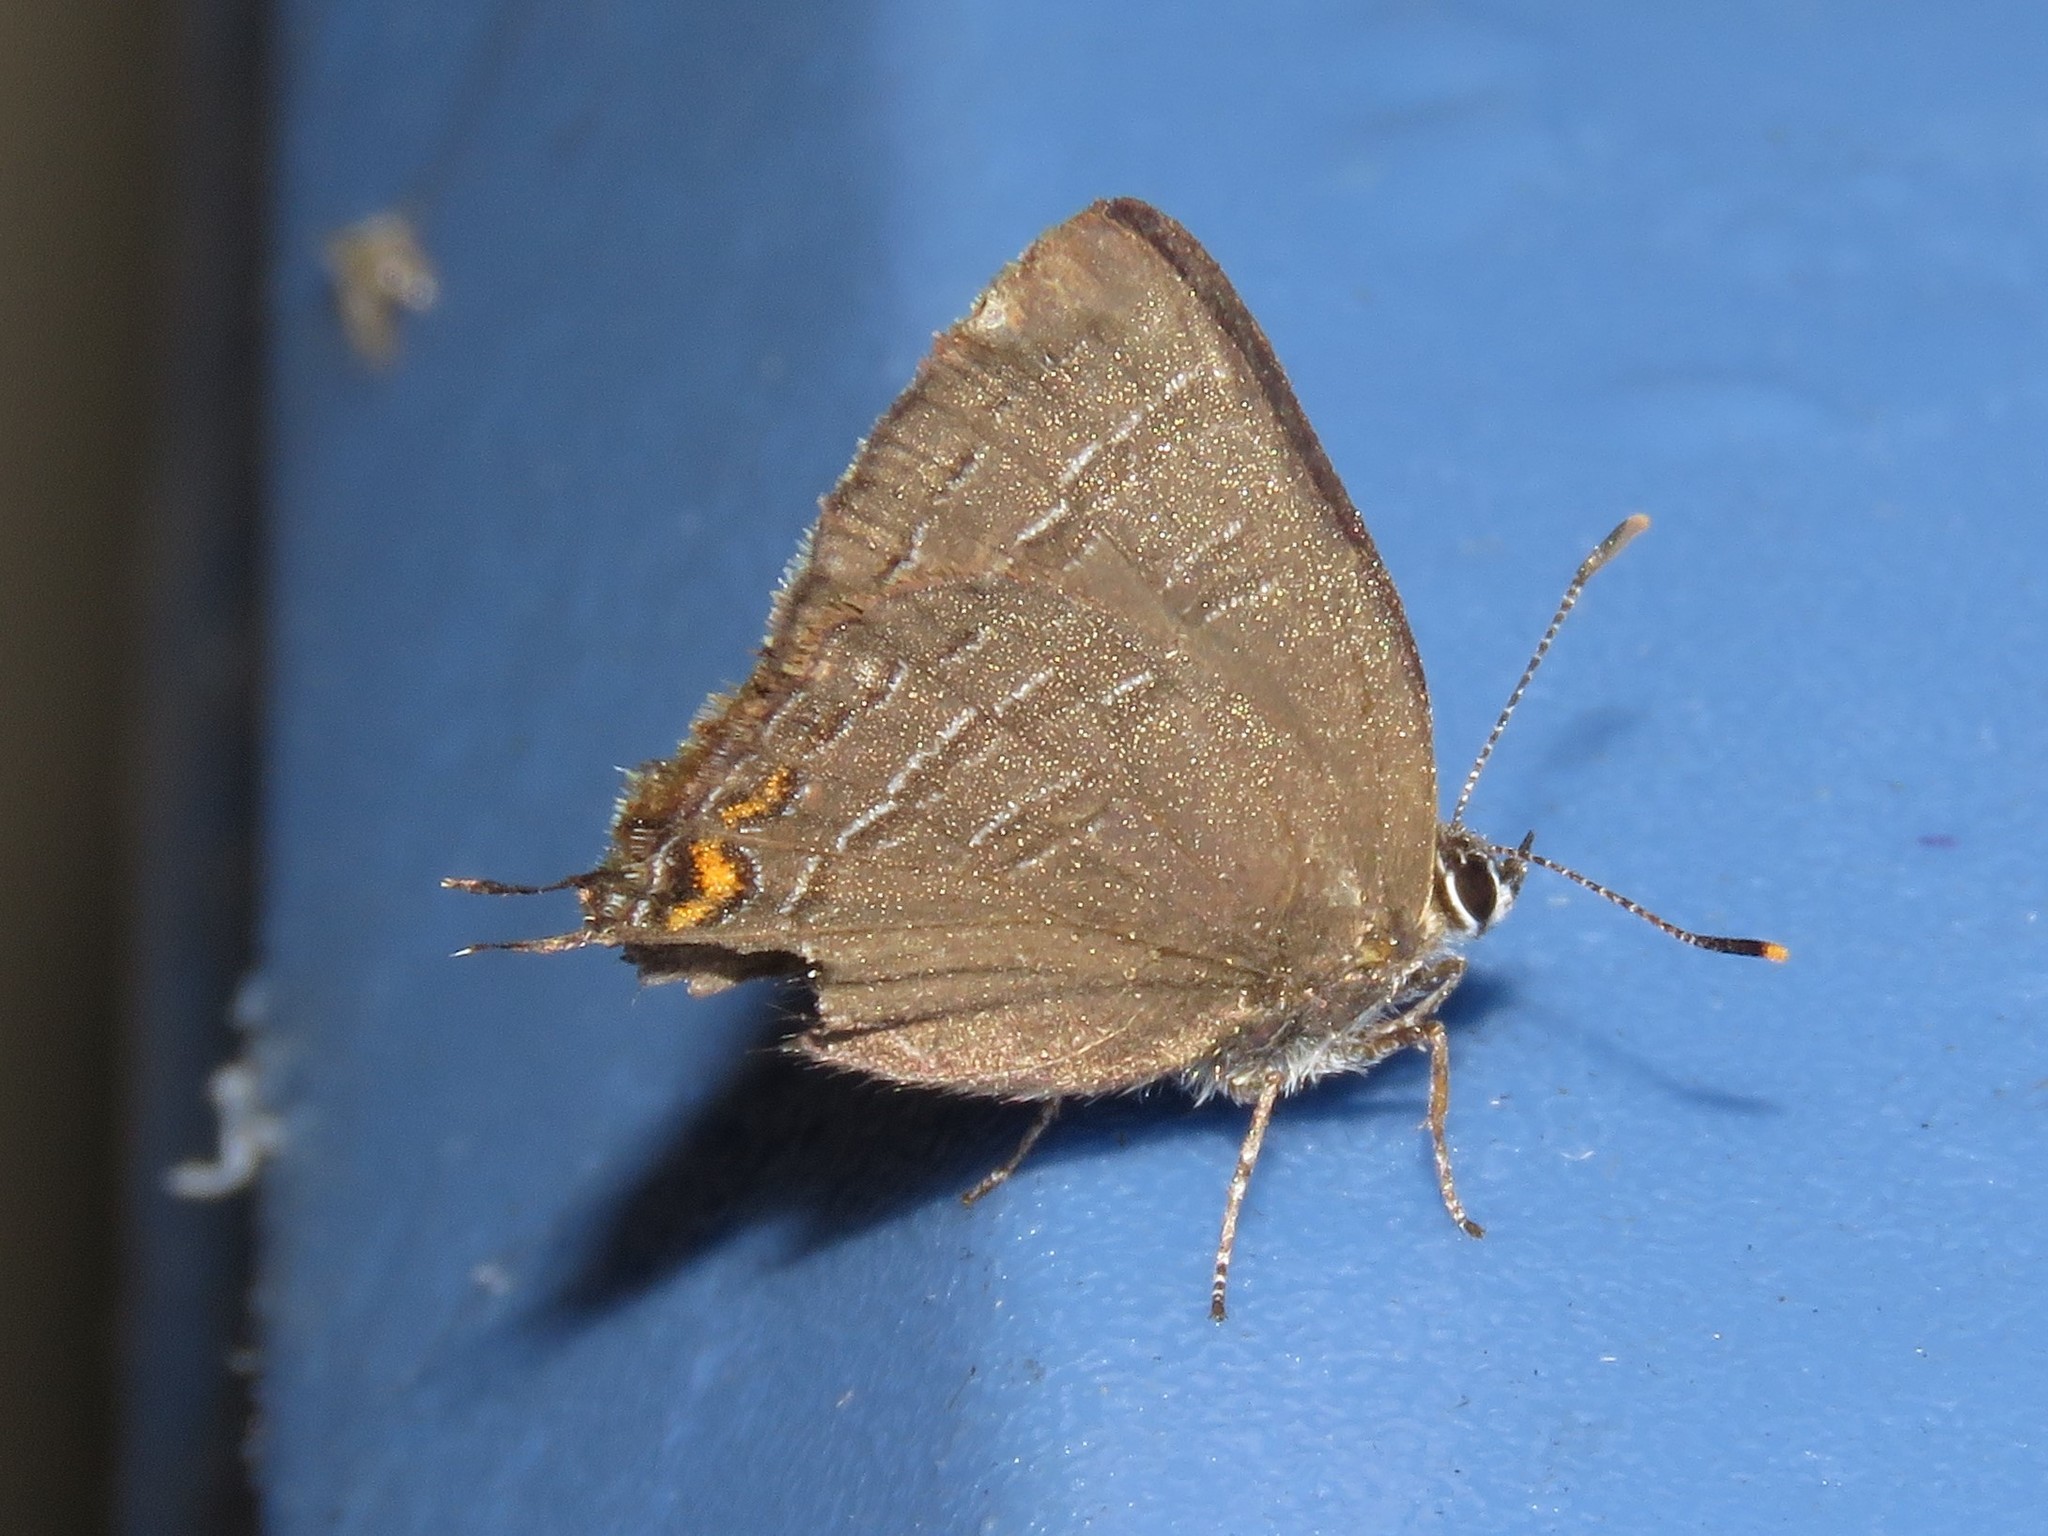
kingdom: Animalia
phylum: Arthropoda
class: Insecta
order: Lepidoptera
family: Lycaenidae
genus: Satyrium
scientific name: Satyrium calanus
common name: Banded hairstreak
